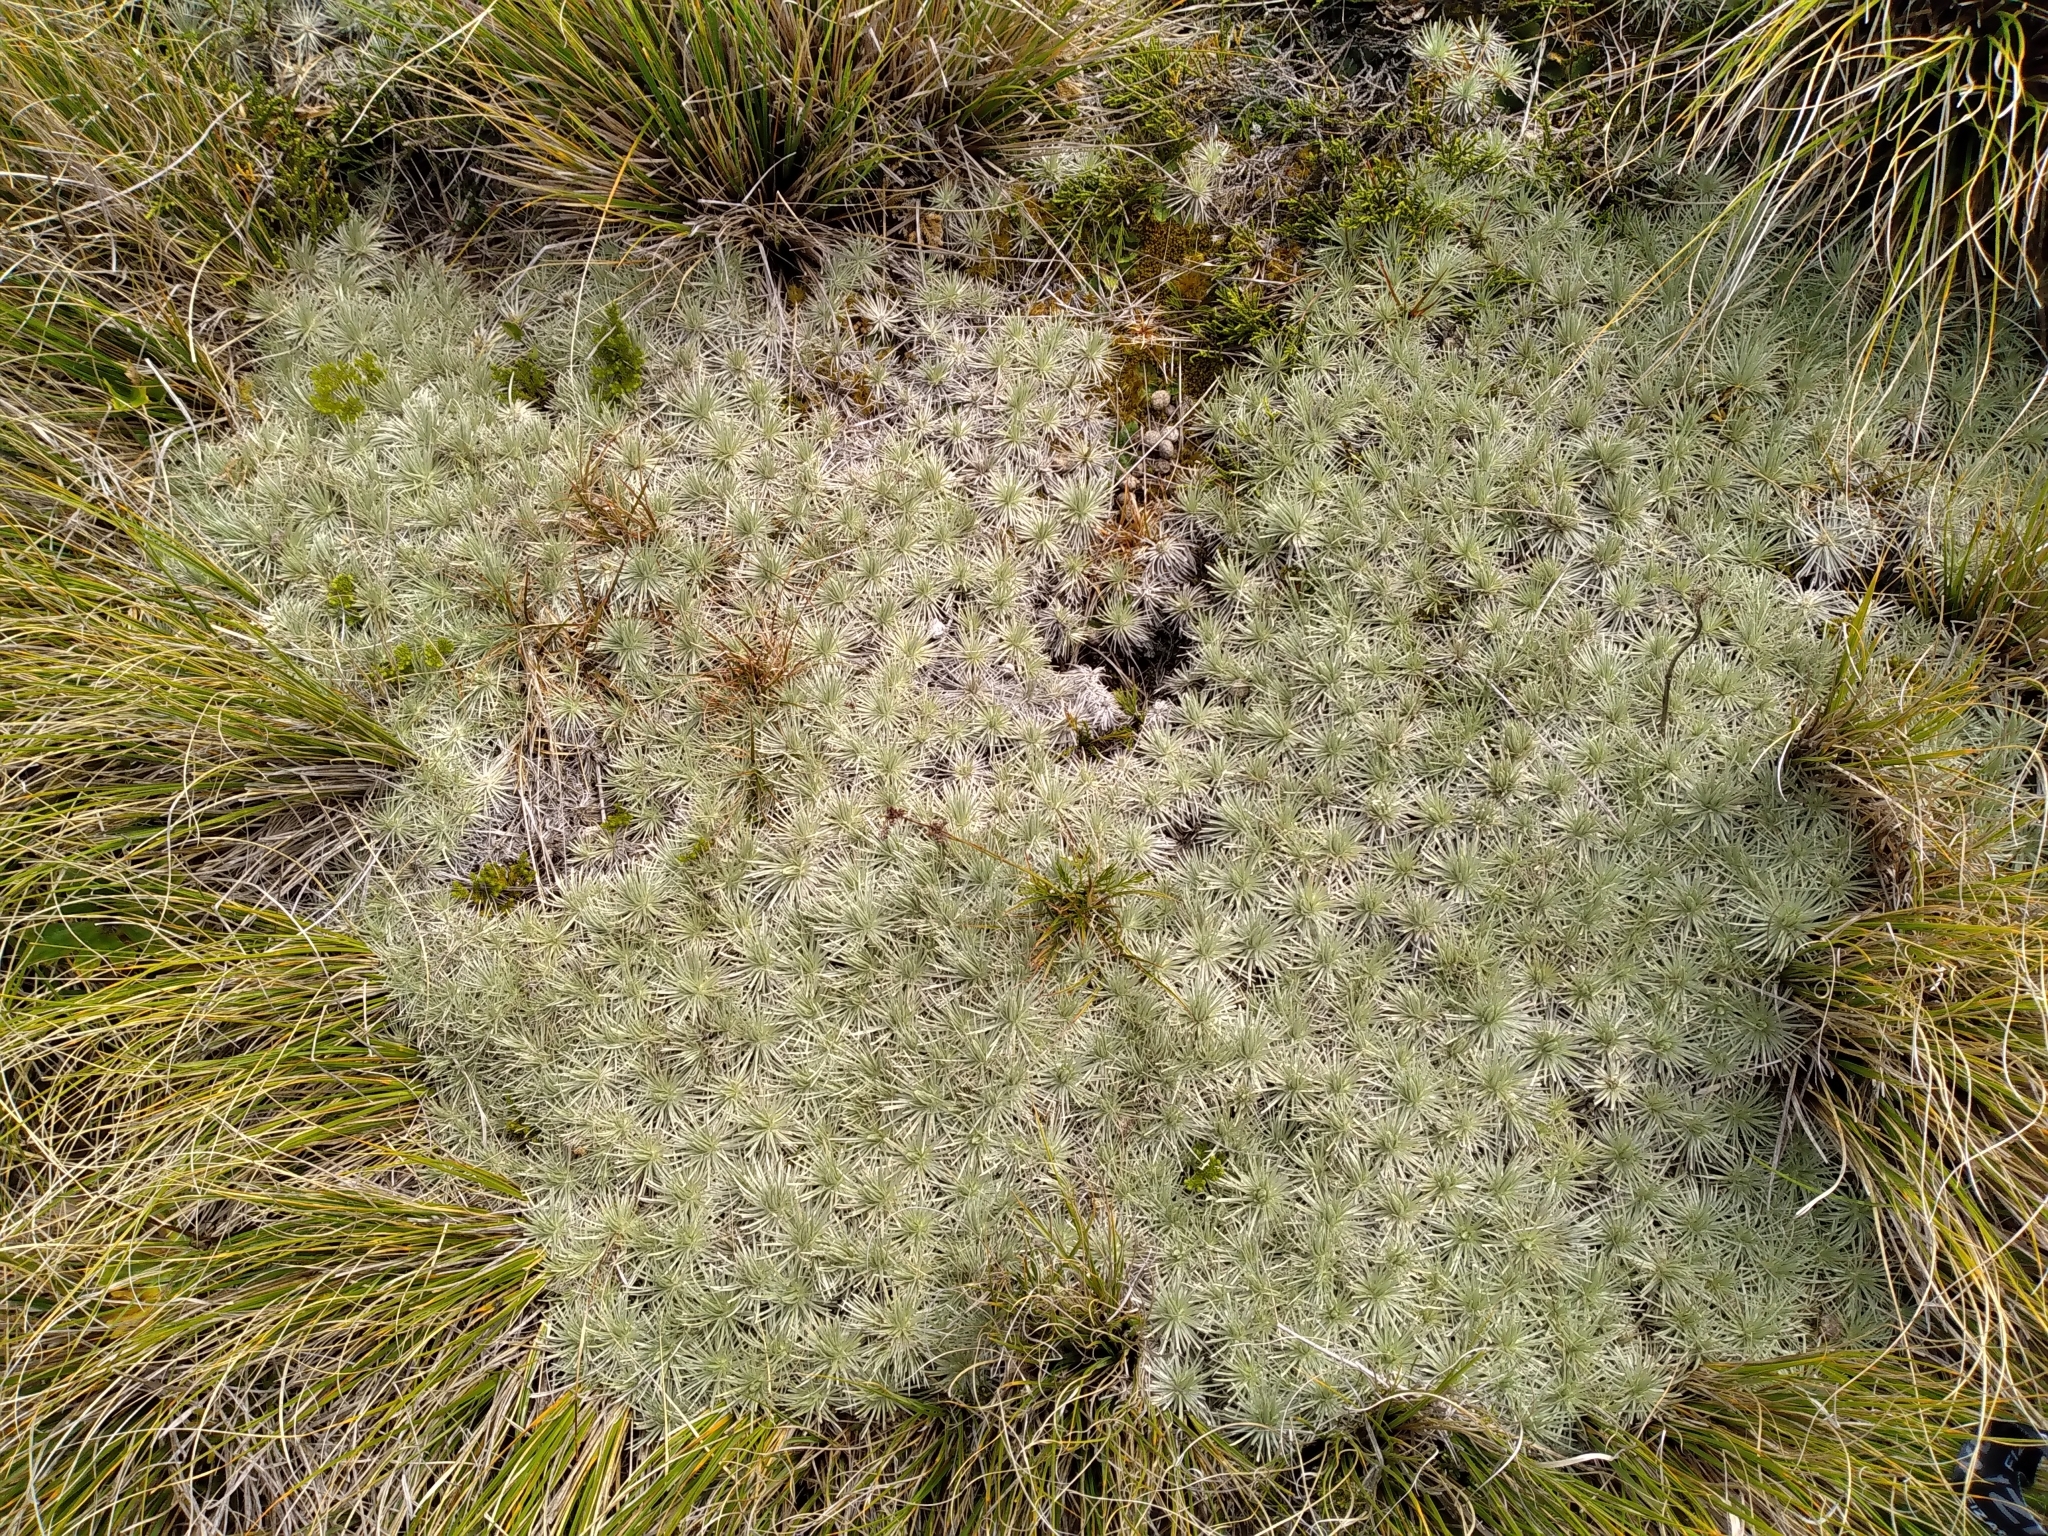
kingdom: Plantae
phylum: Tracheophyta
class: Magnoliopsida
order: Asterales
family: Asteraceae
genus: Celmisia
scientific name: Celmisia sessiliflora
